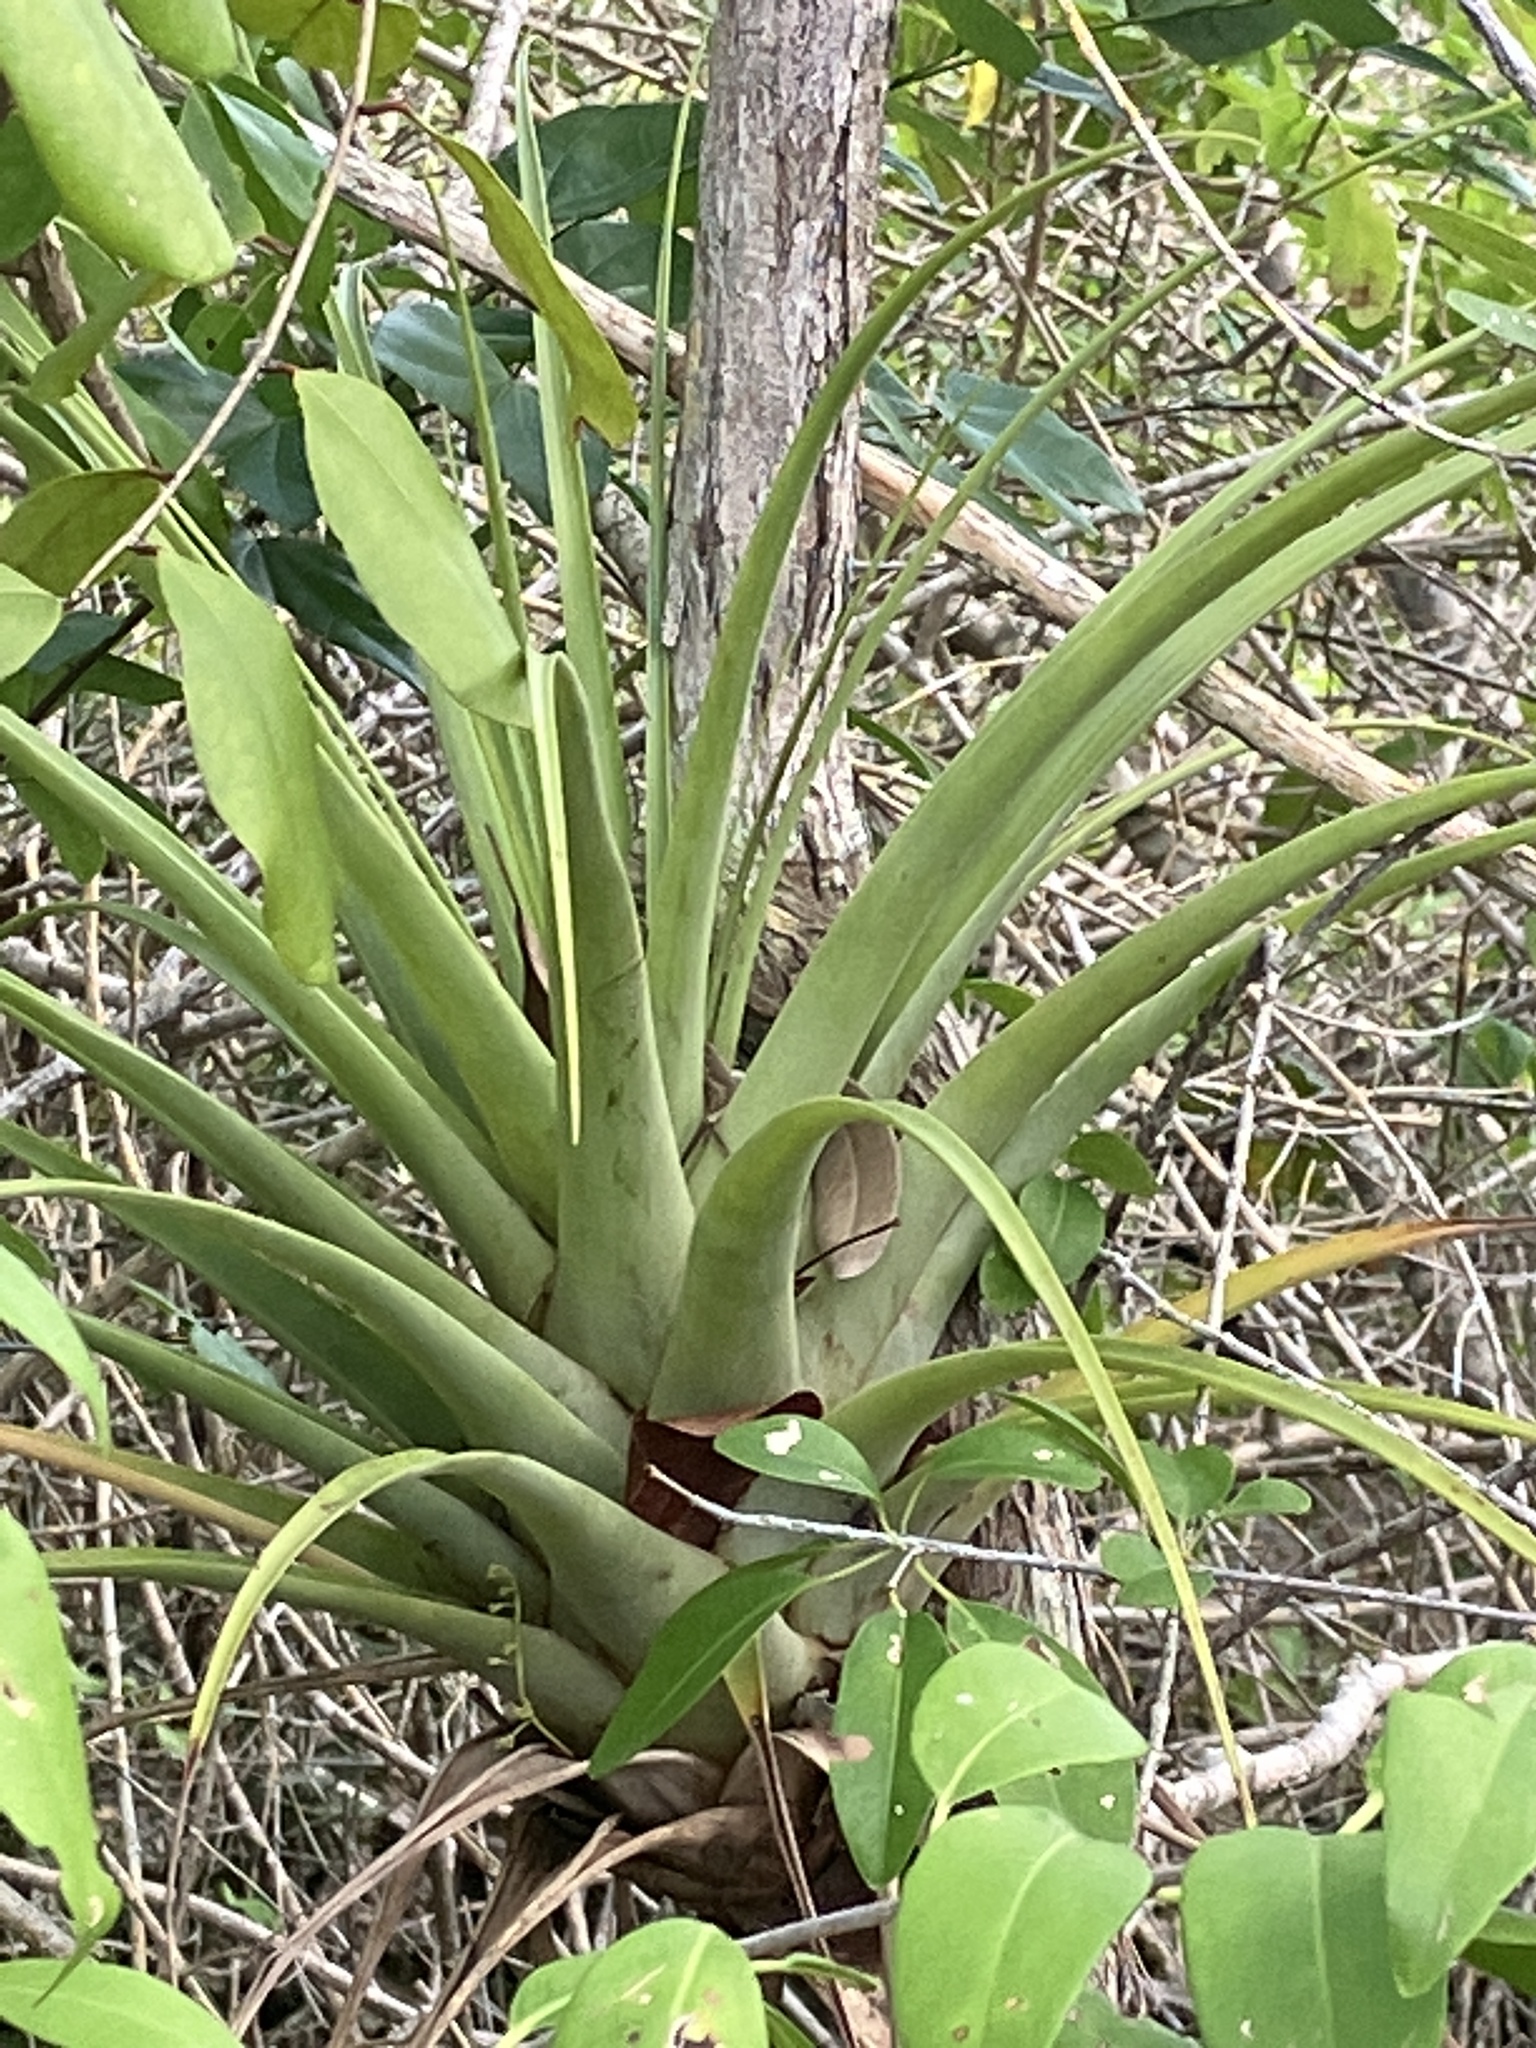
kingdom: Plantae
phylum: Tracheophyta
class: Liliopsida
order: Poales
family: Bromeliaceae
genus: Tillandsia
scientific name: Tillandsia utriculata
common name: Wild pine
